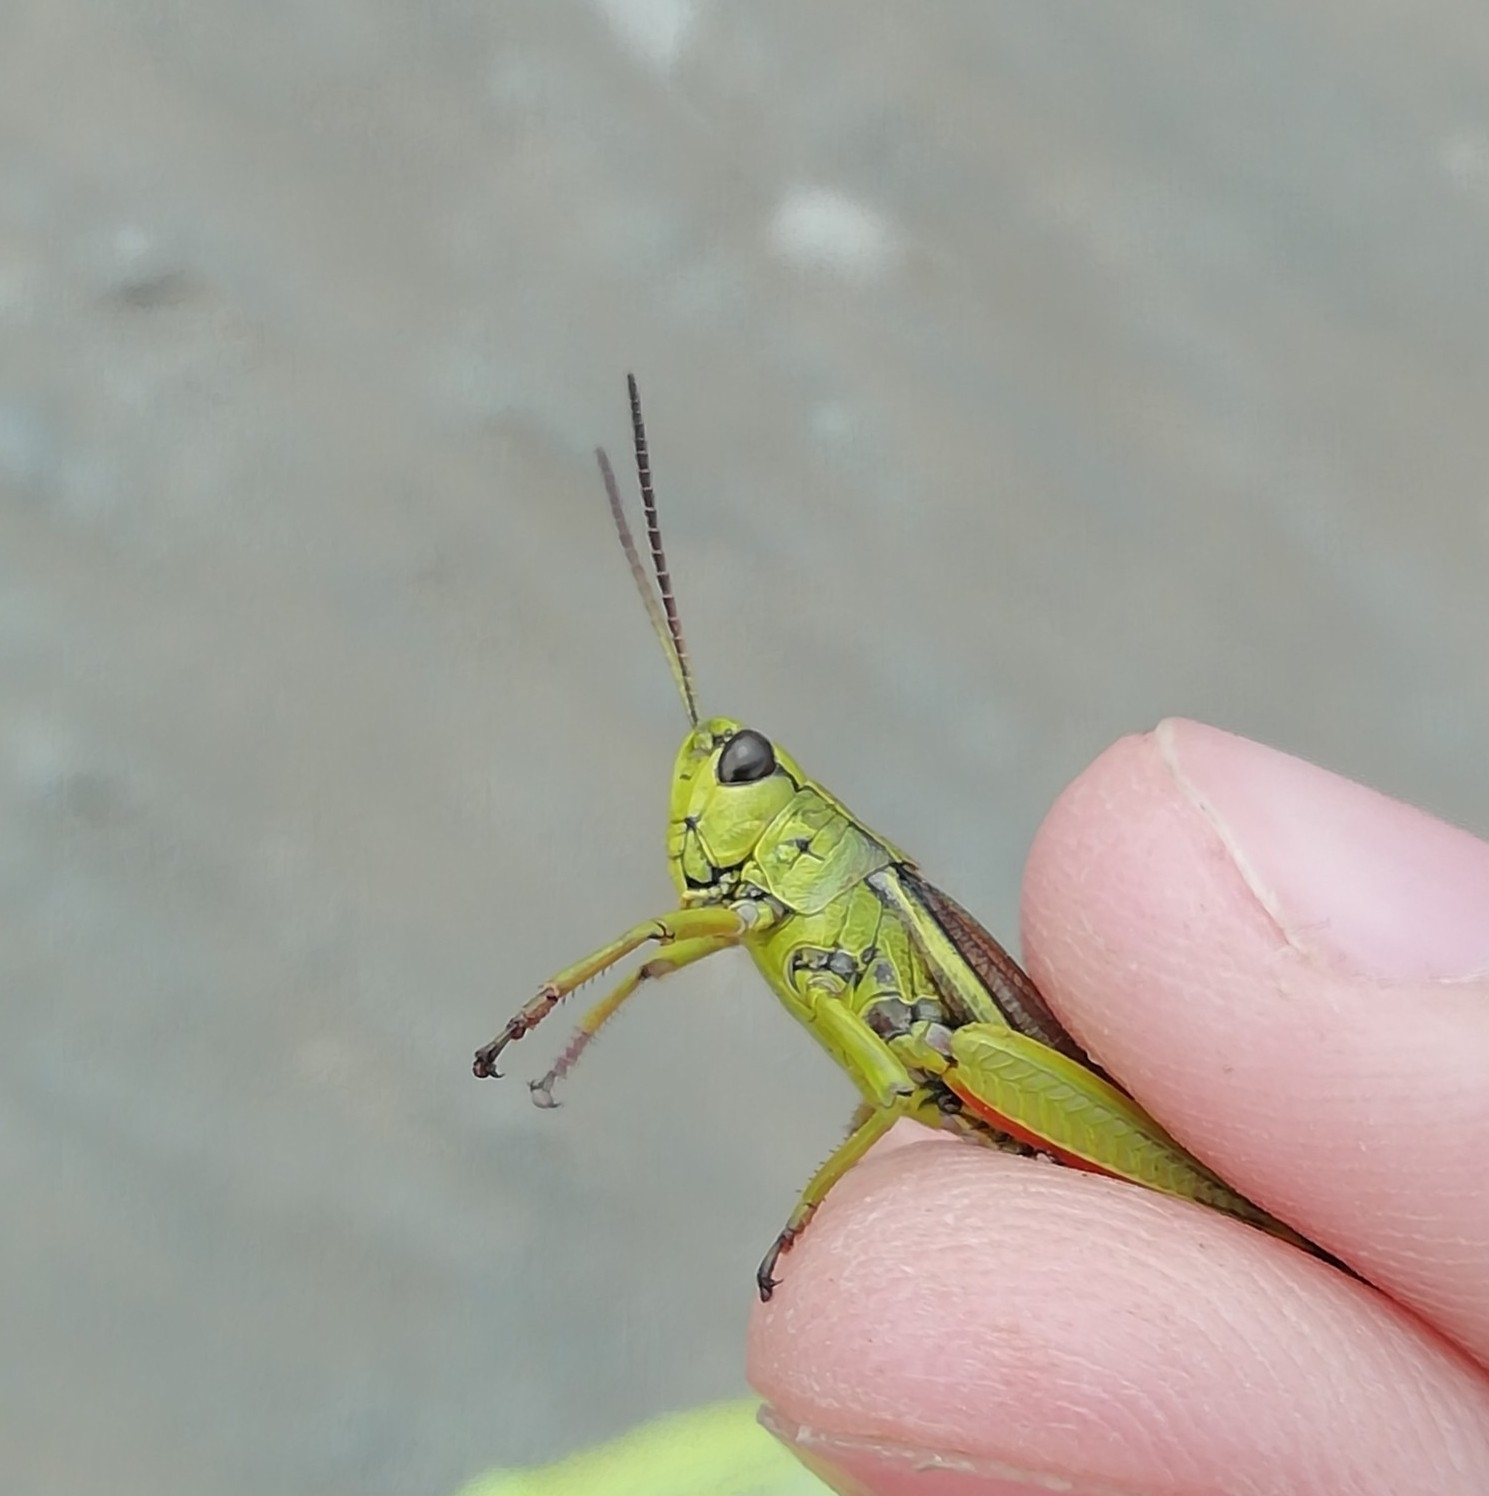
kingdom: Animalia
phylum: Arthropoda
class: Insecta
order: Orthoptera
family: Acrididae
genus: Stethophyma
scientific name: Stethophyma grossum
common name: Large marsh grasshopper
